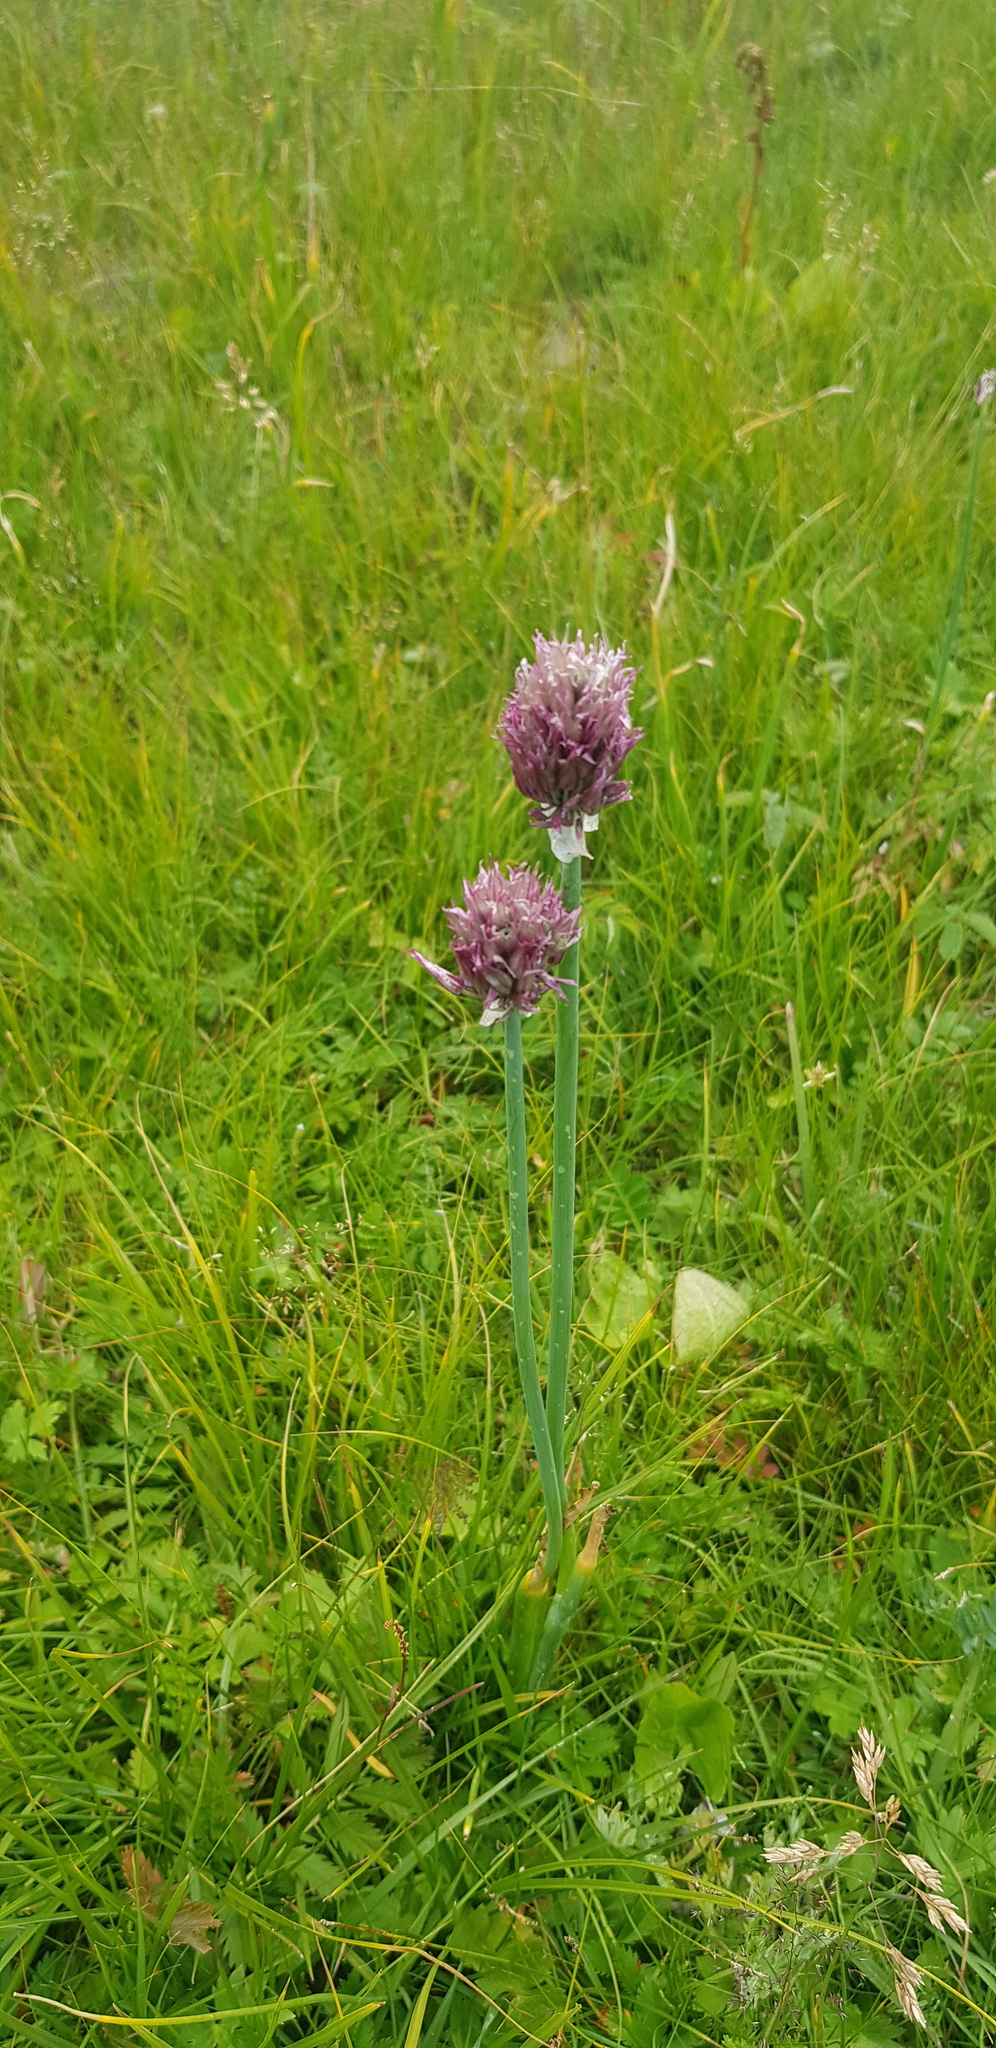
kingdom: Plantae
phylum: Tracheophyta
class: Liliopsida
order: Asparagales
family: Amaryllidaceae
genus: Allium
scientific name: Allium schoenoprasum
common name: Chives
